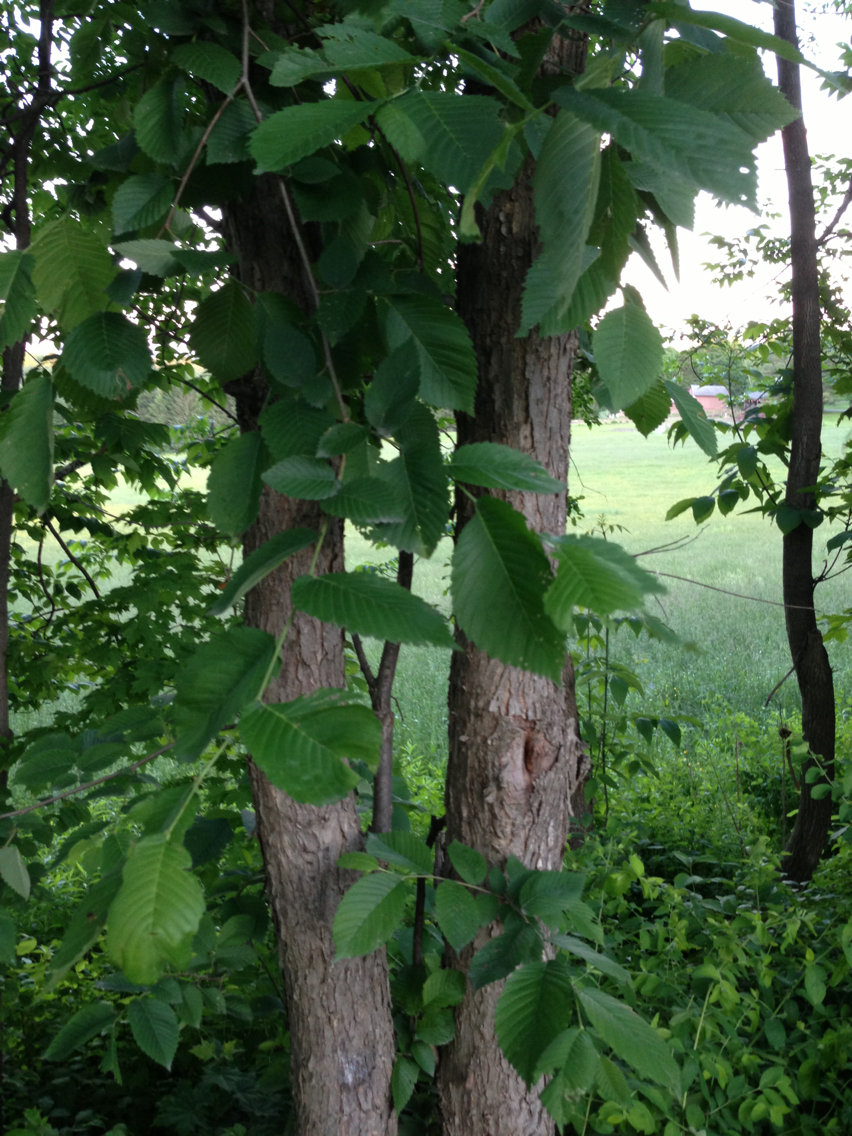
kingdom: Plantae
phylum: Tracheophyta
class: Magnoliopsida
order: Rosales
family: Ulmaceae
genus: Ulmus
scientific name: Ulmus americana
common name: American elm
